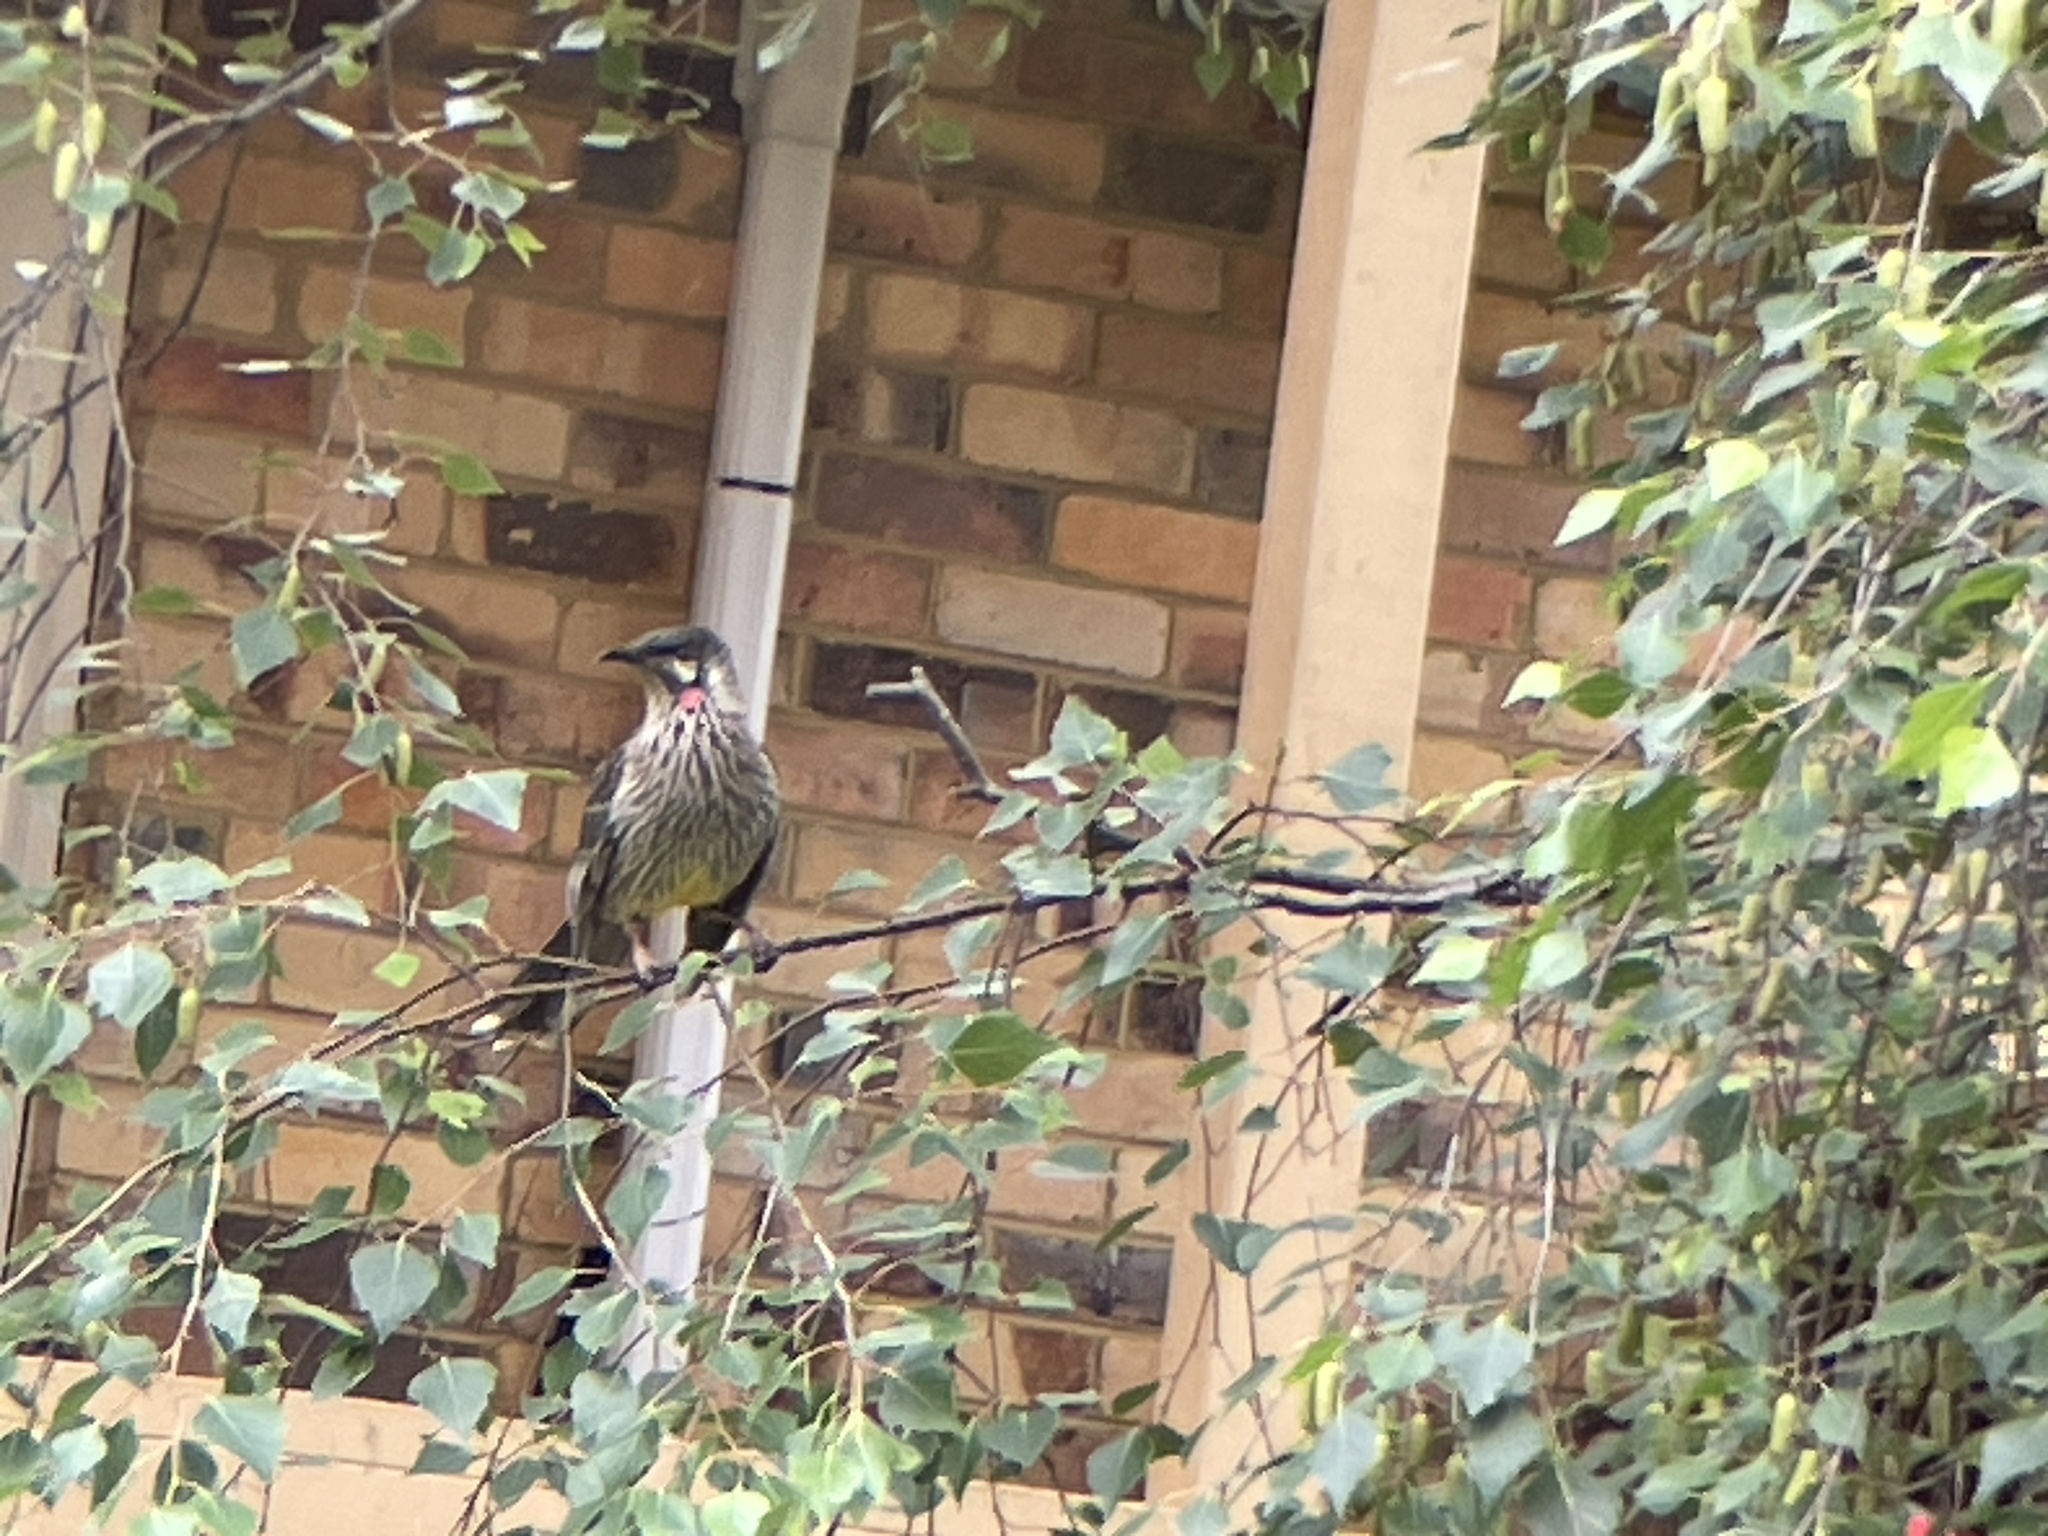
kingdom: Animalia
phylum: Chordata
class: Aves
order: Passeriformes
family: Meliphagidae
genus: Anthochaera
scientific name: Anthochaera carunculata
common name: Red wattlebird
